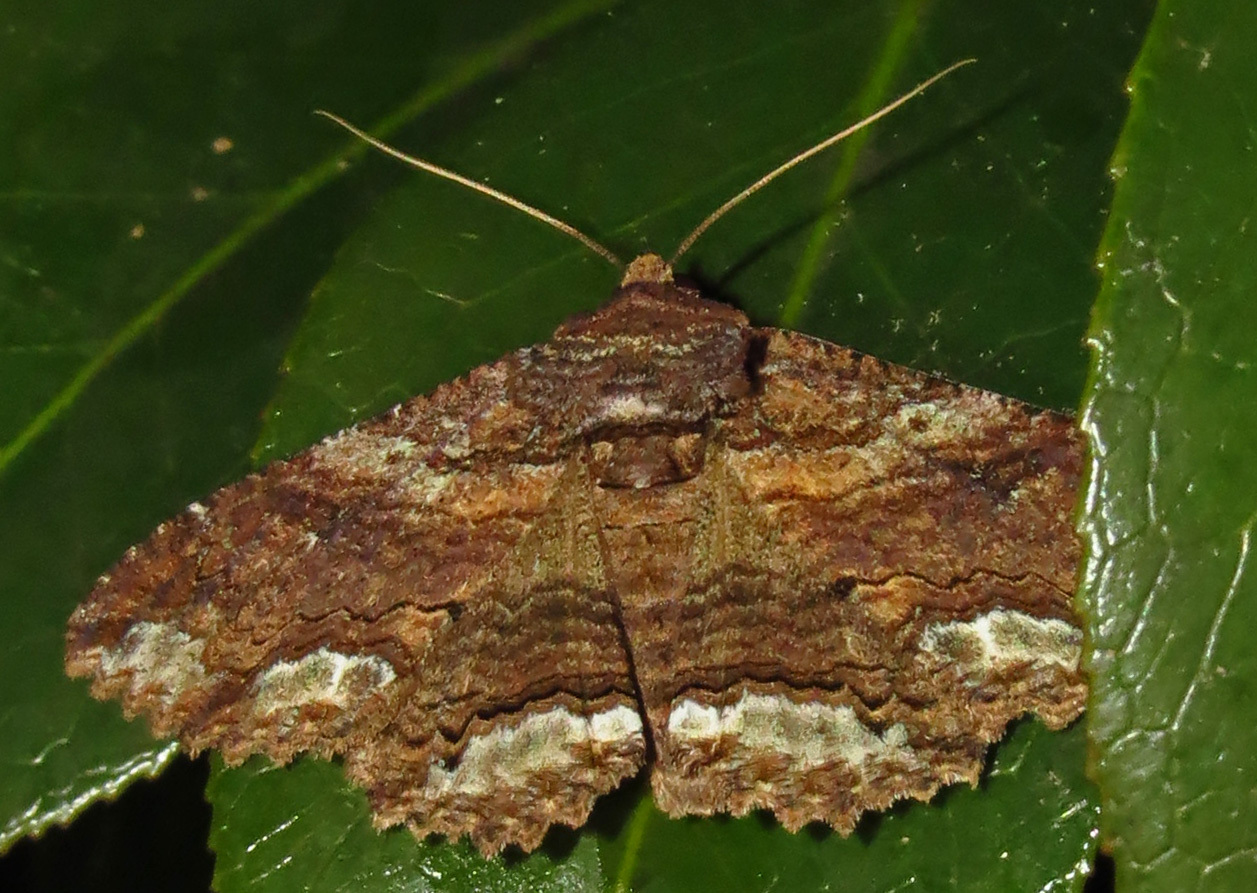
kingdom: Animalia
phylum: Arthropoda
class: Insecta
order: Lepidoptera
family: Erebidae
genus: Zale
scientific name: Zale lunata
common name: Lunate zale moth
